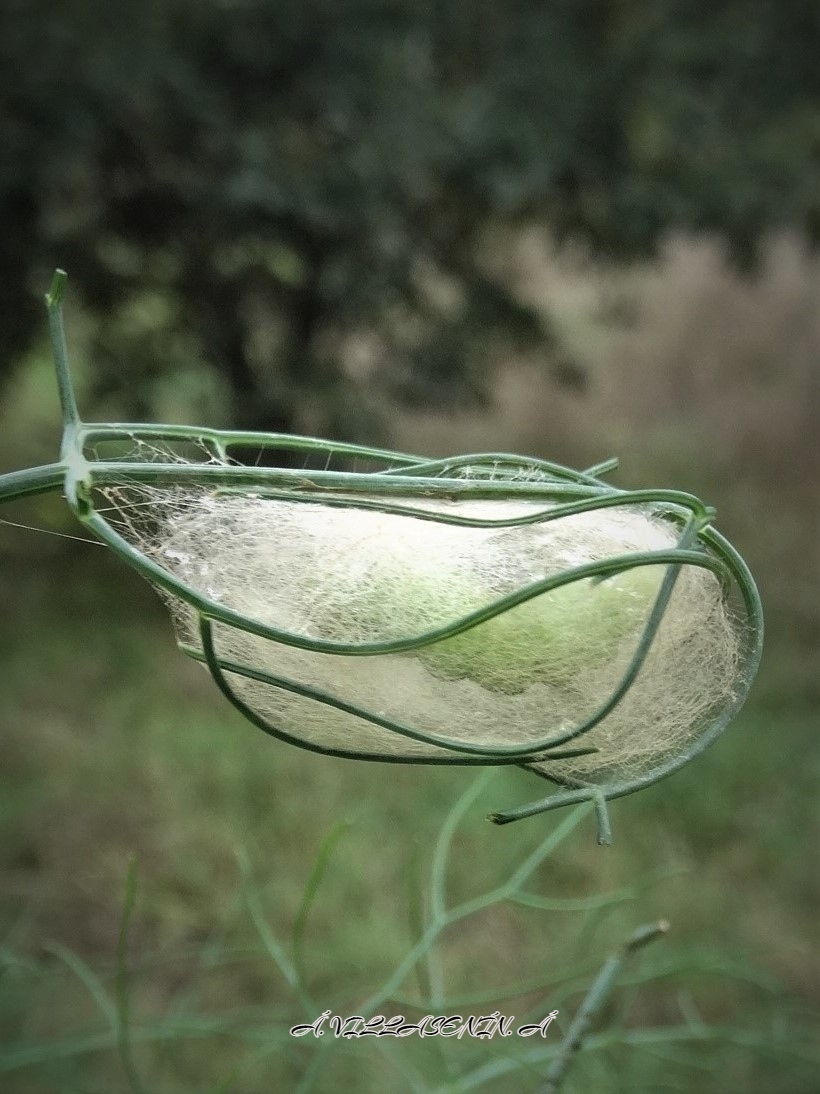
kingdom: Animalia
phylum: Arthropoda
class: Insecta
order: Lepidoptera
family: Noctuidae
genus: Thysanoplusia
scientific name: Thysanoplusia orichalcea
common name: Slender burnished brass, golden plusia
